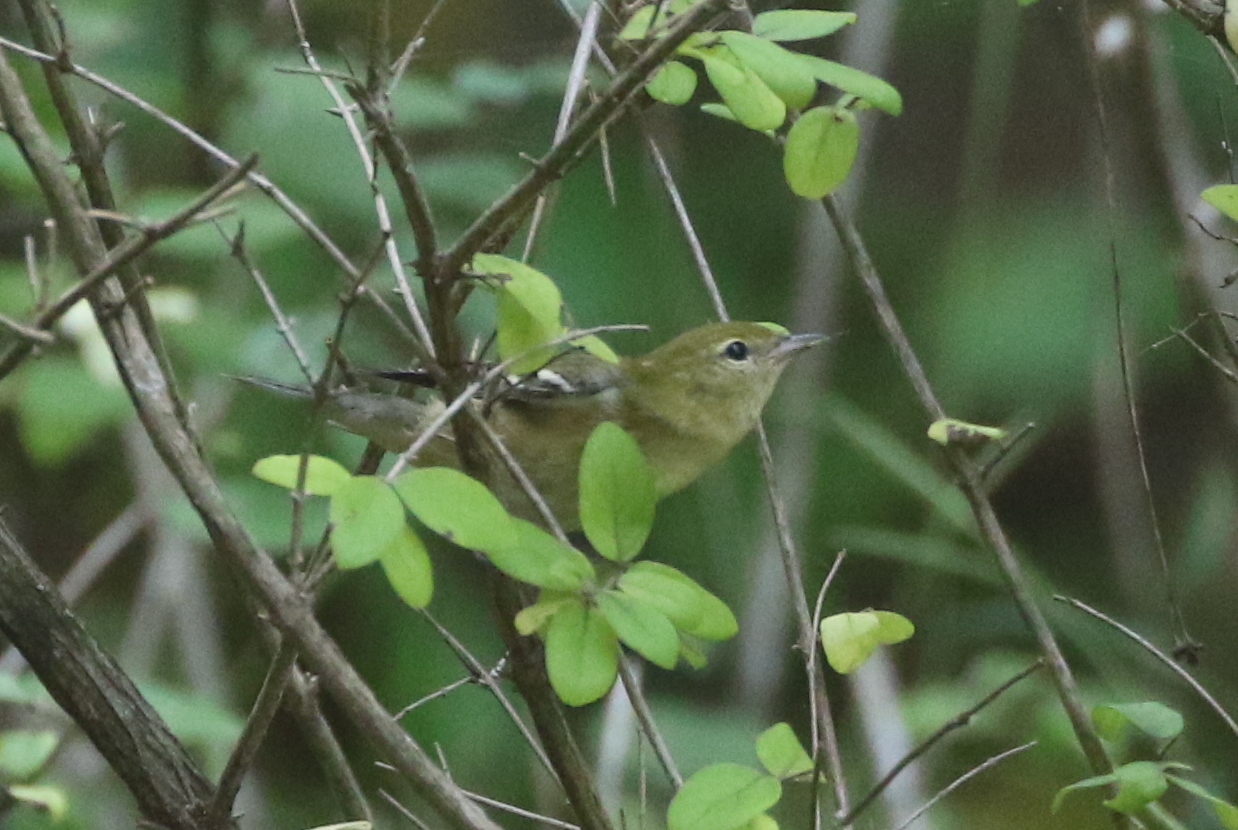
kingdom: Animalia
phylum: Chordata
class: Aves
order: Passeriformes
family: Parulidae
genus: Setophaga
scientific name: Setophaga castanea
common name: Bay-breasted warbler
